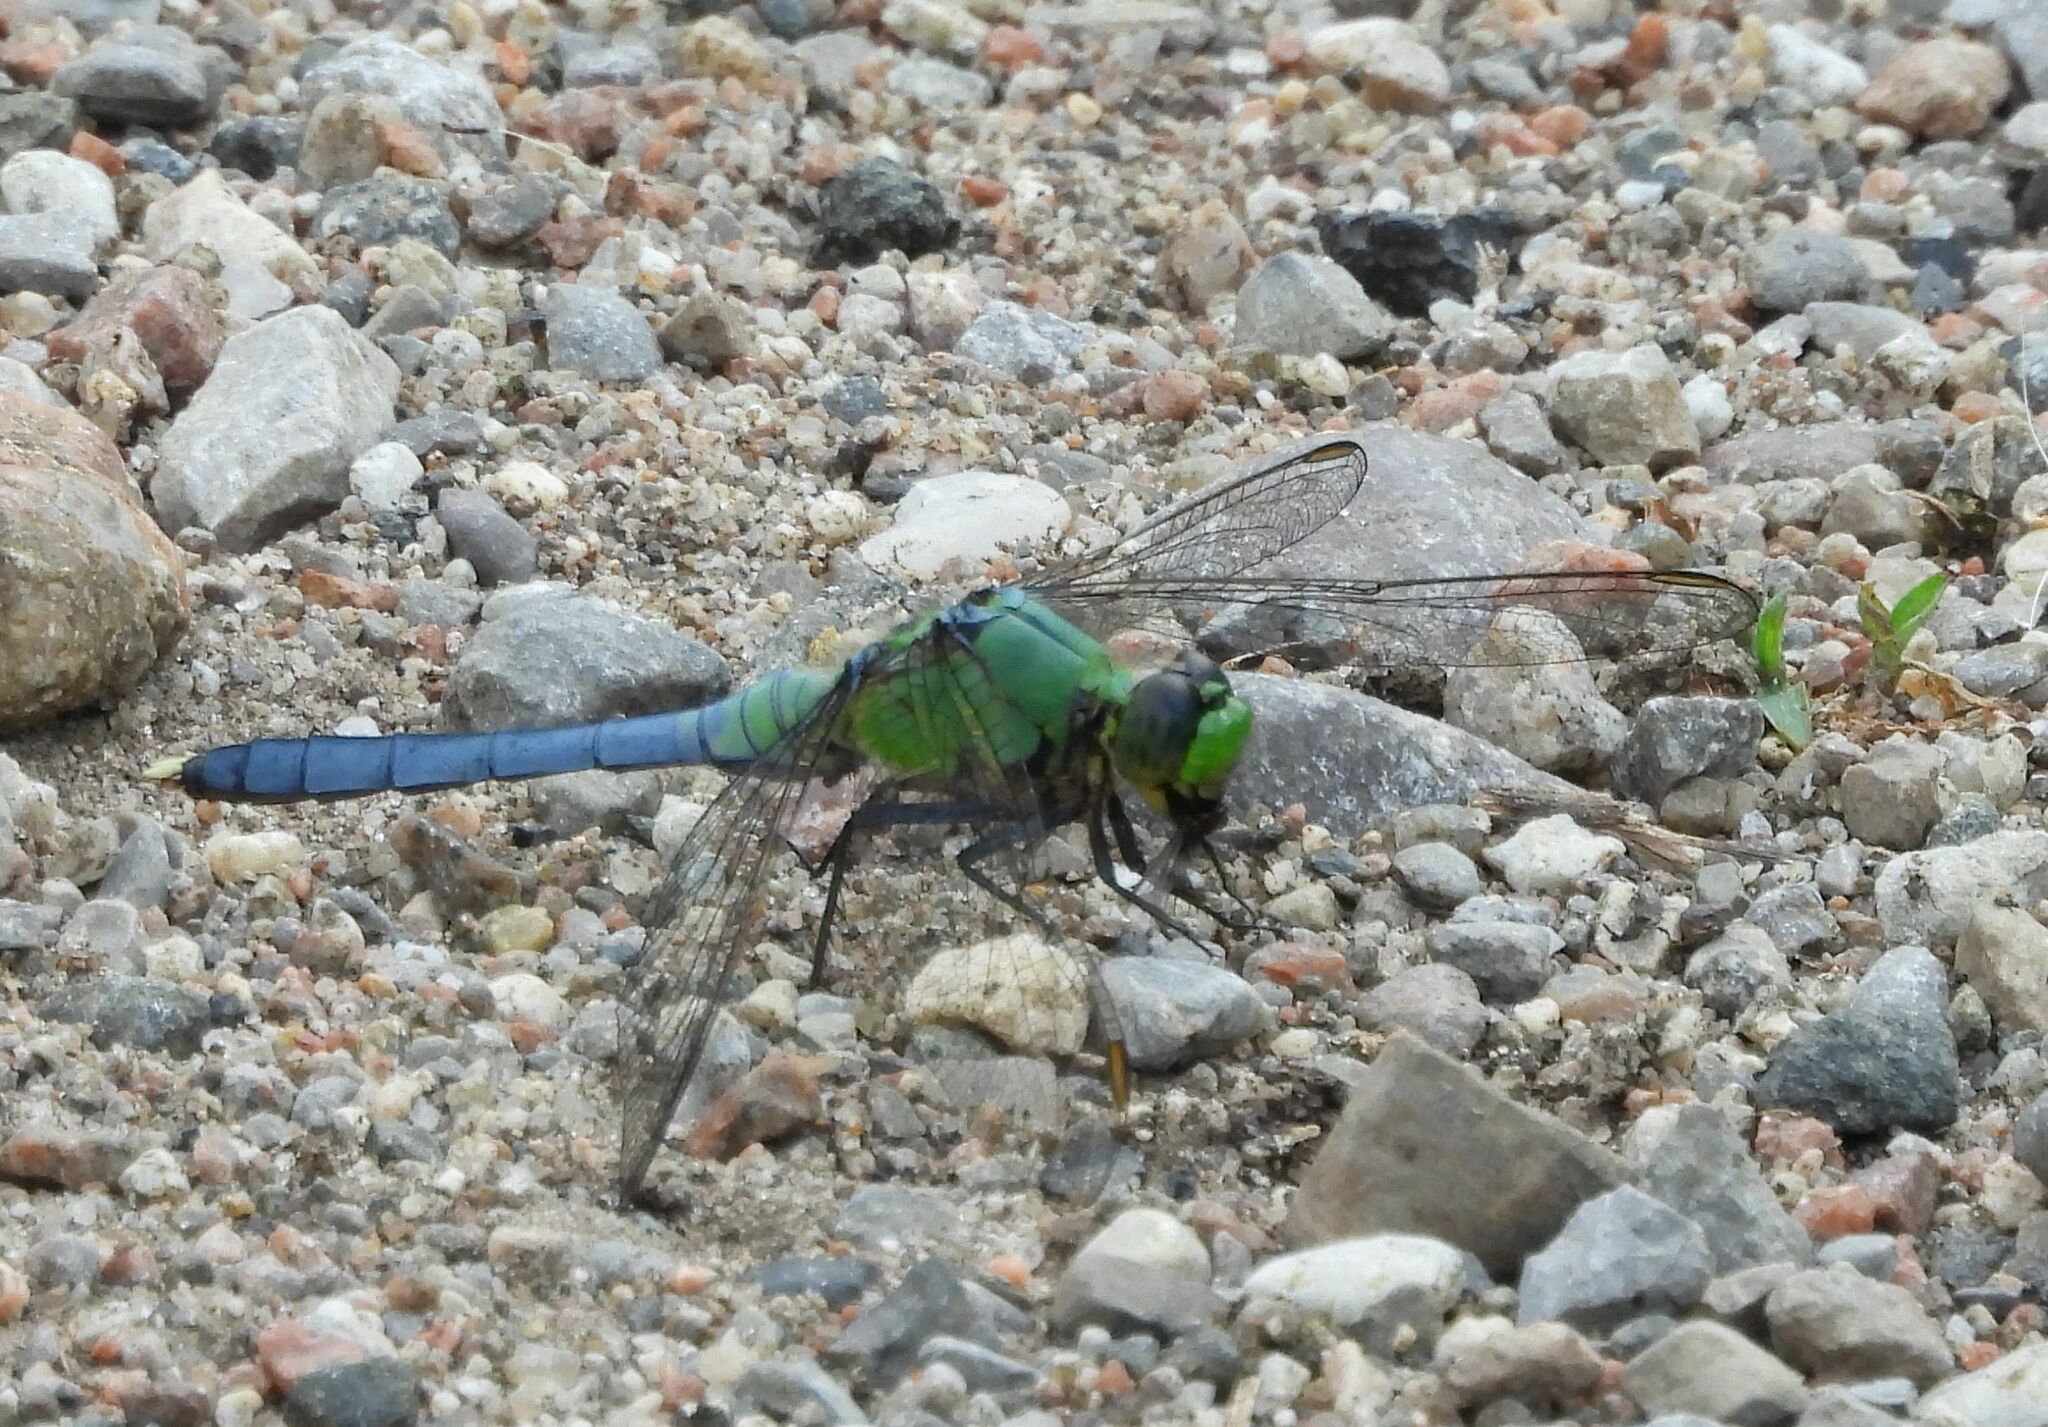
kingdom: Animalia
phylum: Arthropoda
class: Insecta
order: Odonata
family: Libellulidae
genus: Erythemis
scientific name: Erythemis simplicicollis
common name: Eastern pondhawk
